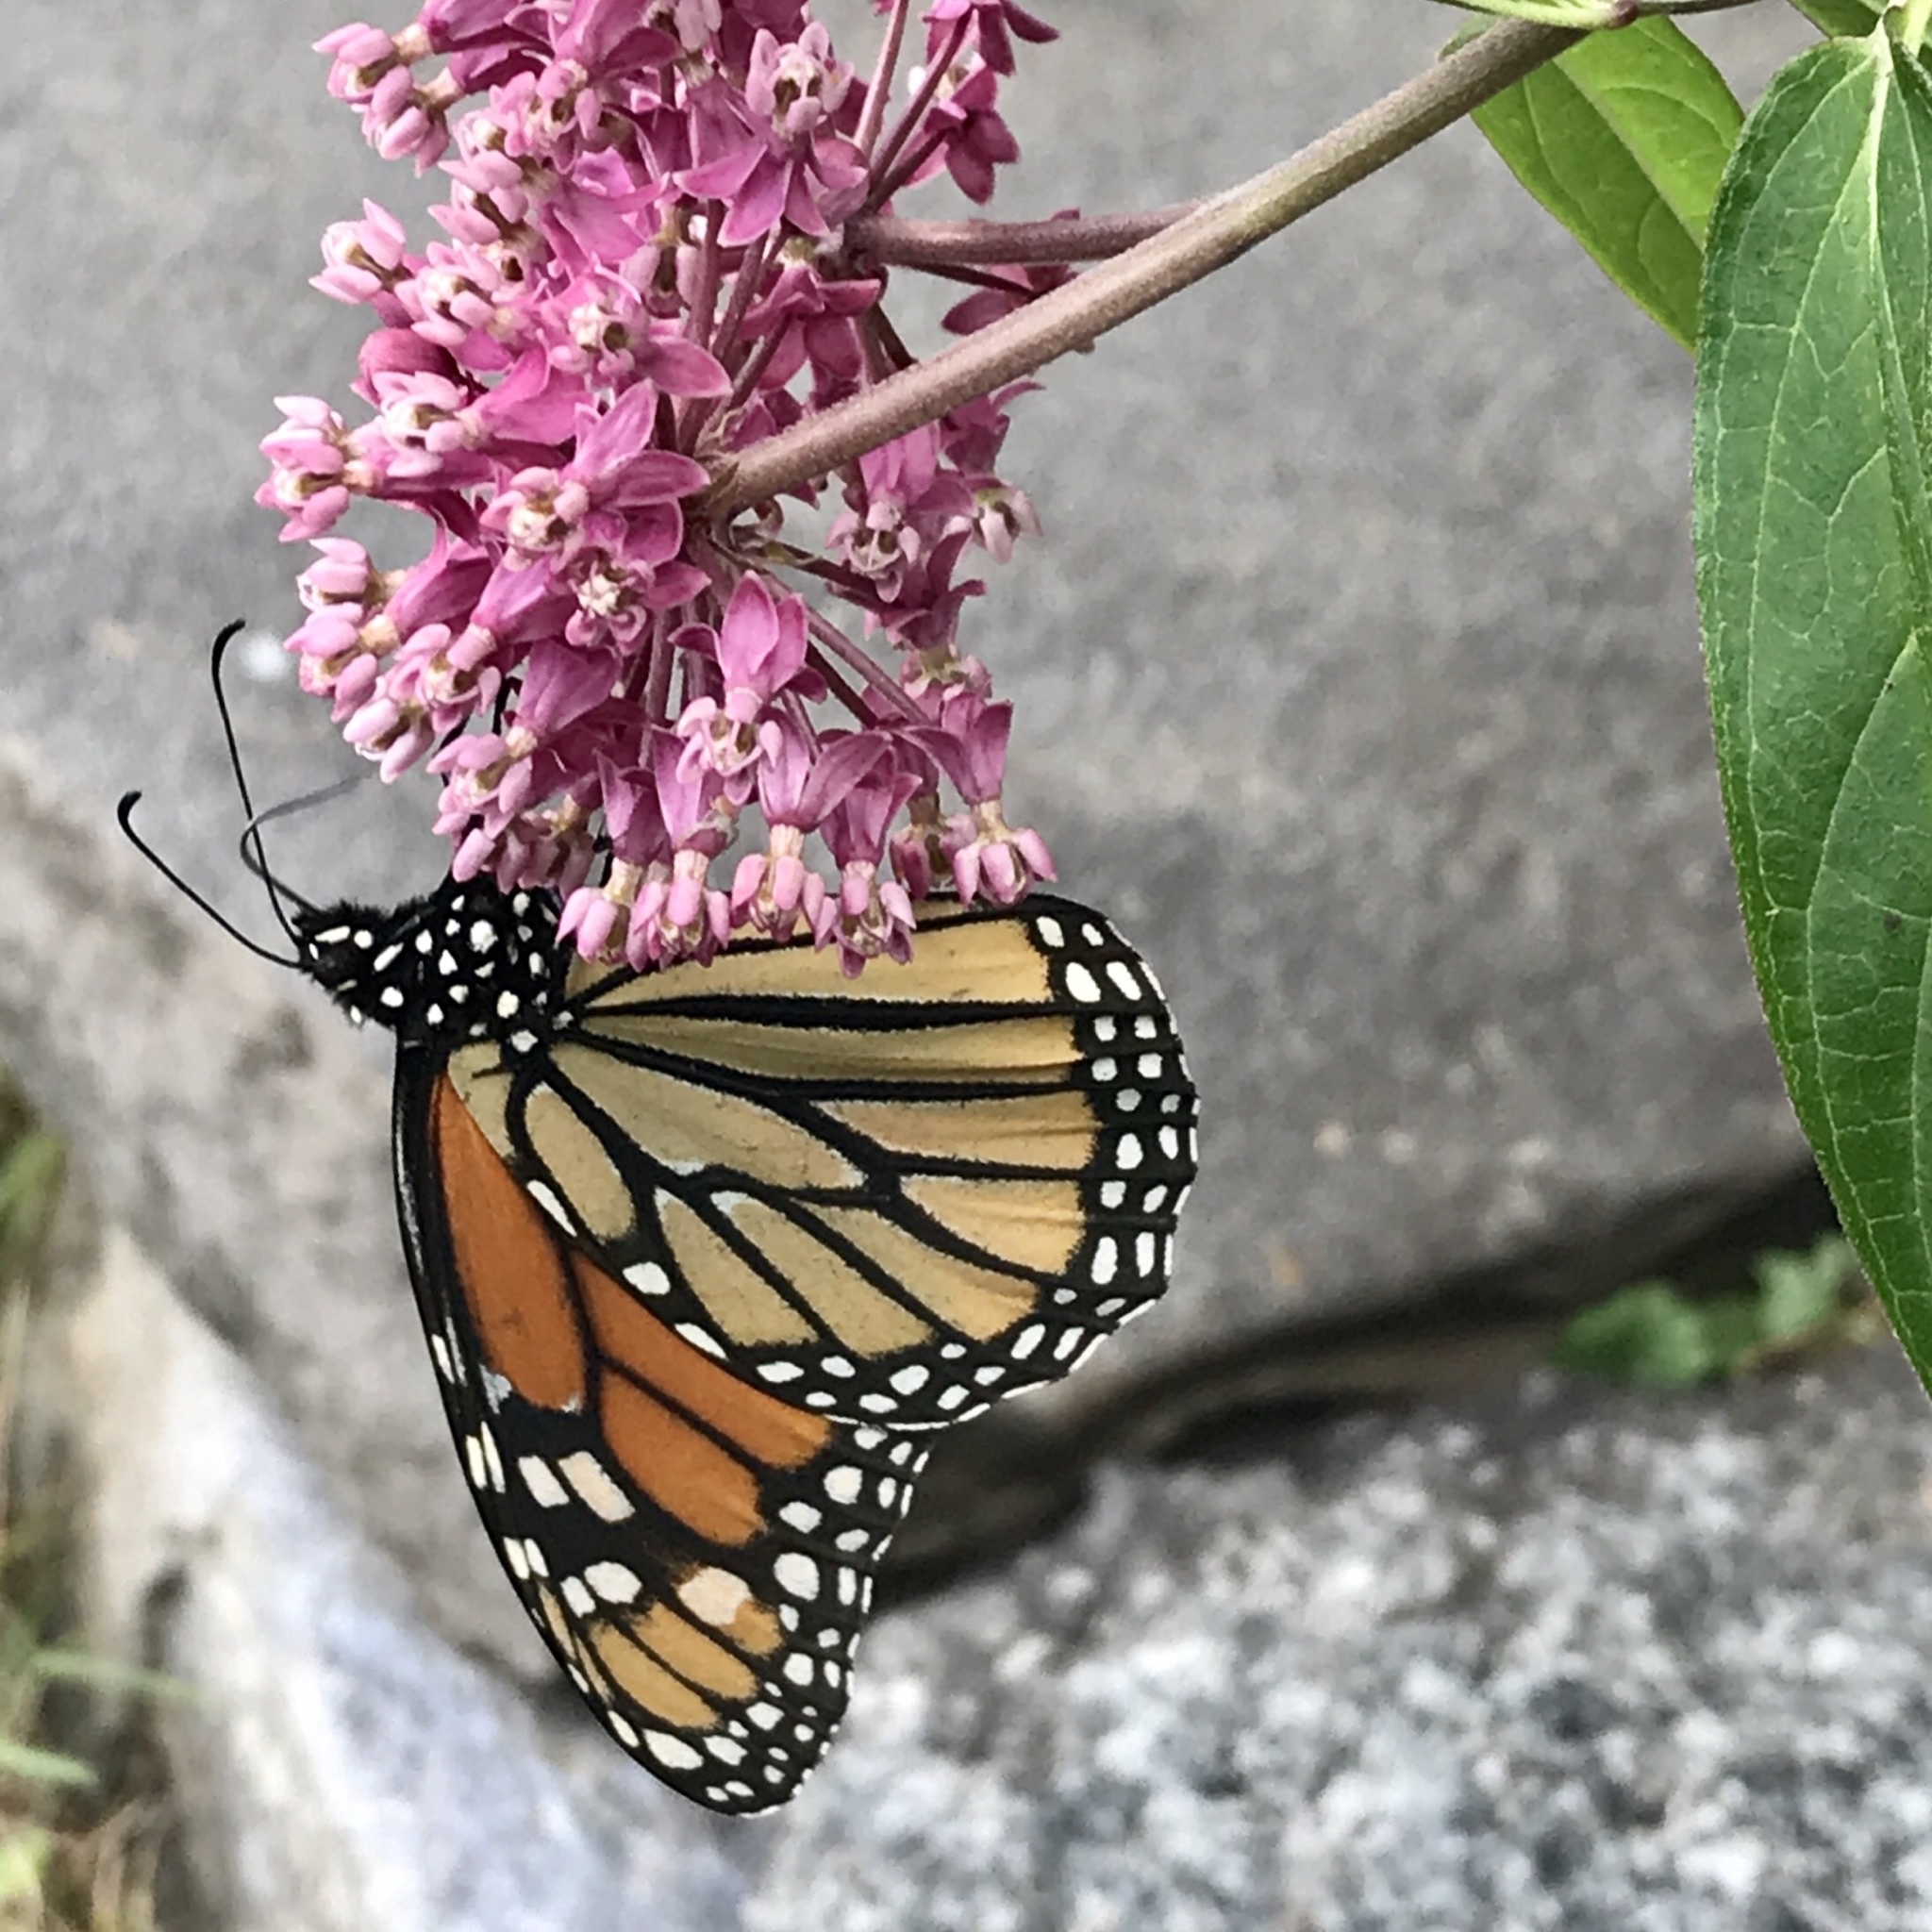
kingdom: Animalia
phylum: Arthropoda
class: Insecta
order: Lepidoptera
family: Nymphalidae
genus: Danaus
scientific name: Danaus plexippus
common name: Monarch
